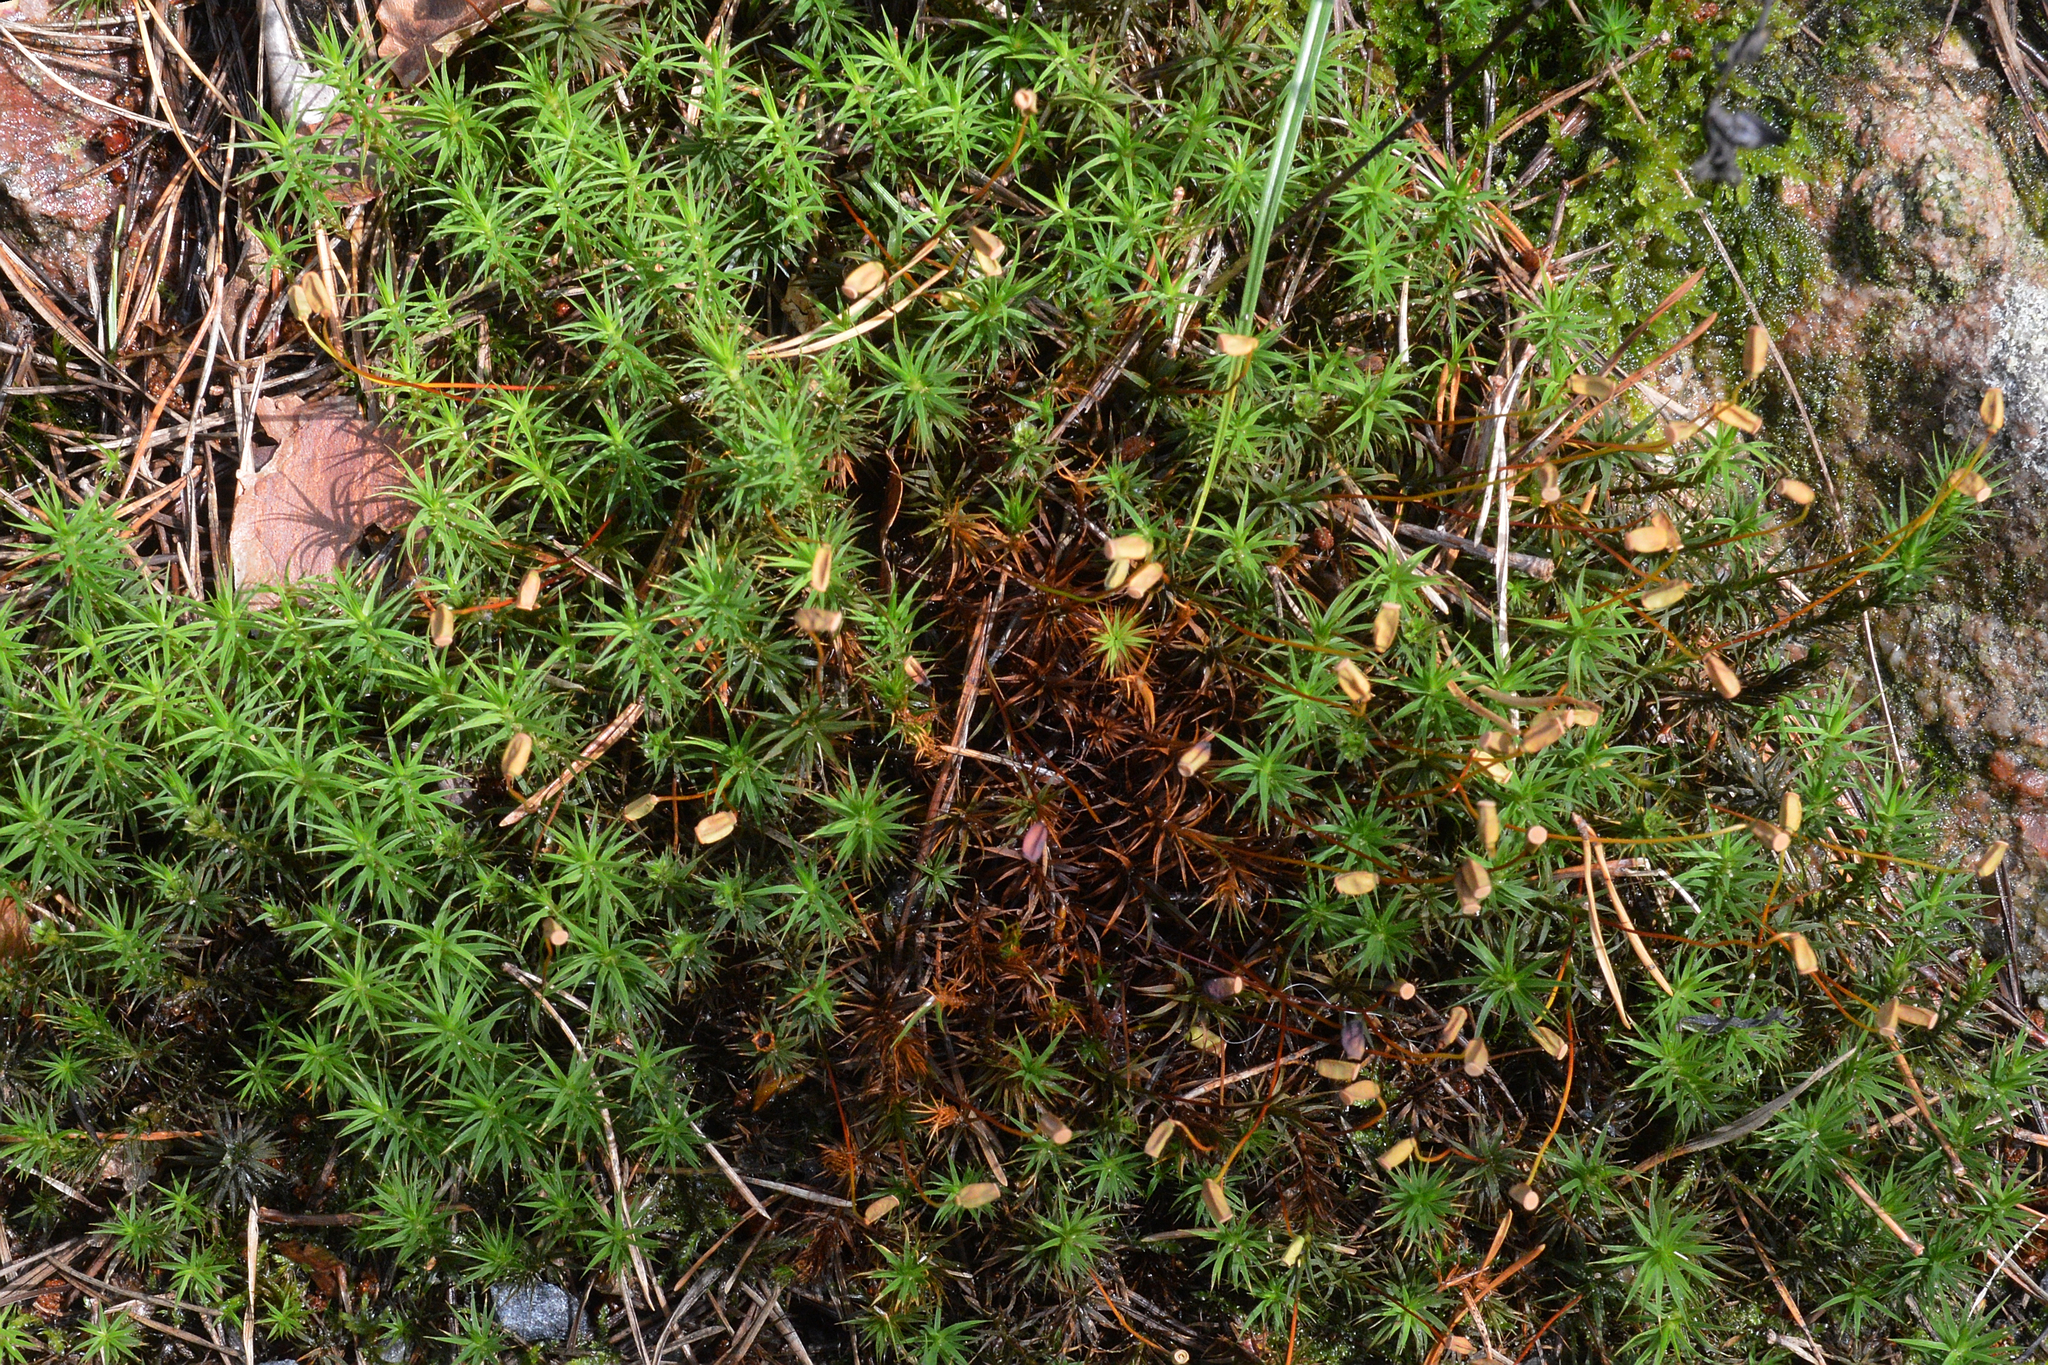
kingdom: Plantae
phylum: Bryophyta
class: Polytrichopsida
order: Polytrichales
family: Polytrichaceae
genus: Polytrichum
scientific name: Polytrichum formosum
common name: Bank haircap moss
